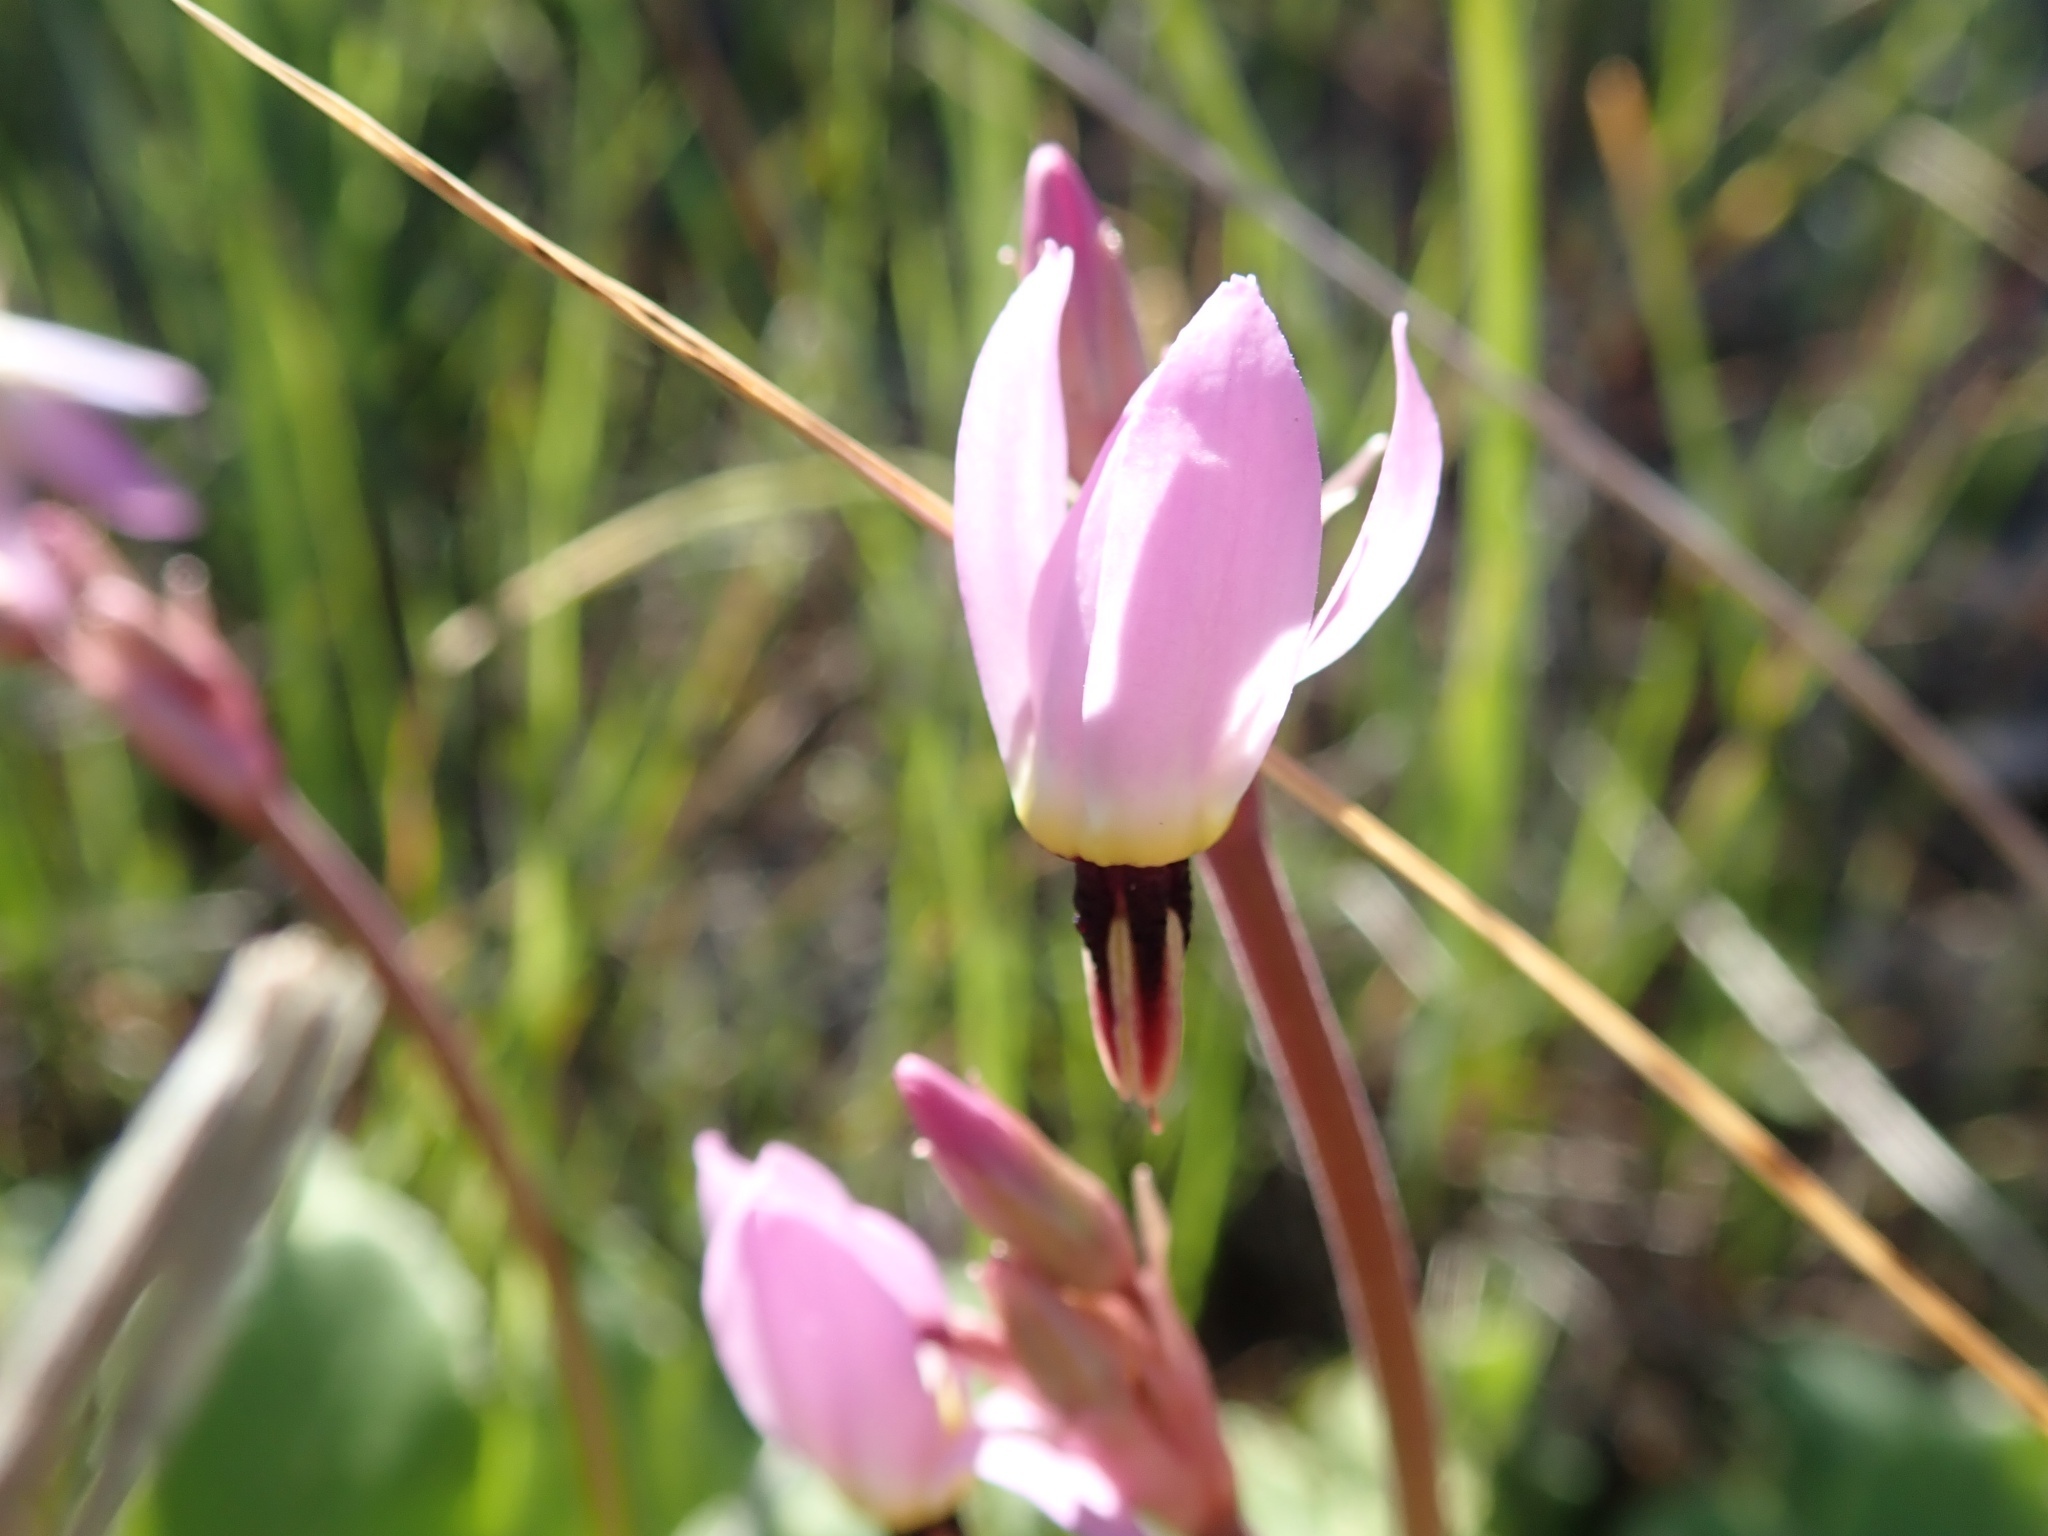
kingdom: Plantae
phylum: Tracheophyta
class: Magnoliopsida
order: Ericales
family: Primulaceae
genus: Dodecatheon
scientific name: Dodecatheon hendersonii
